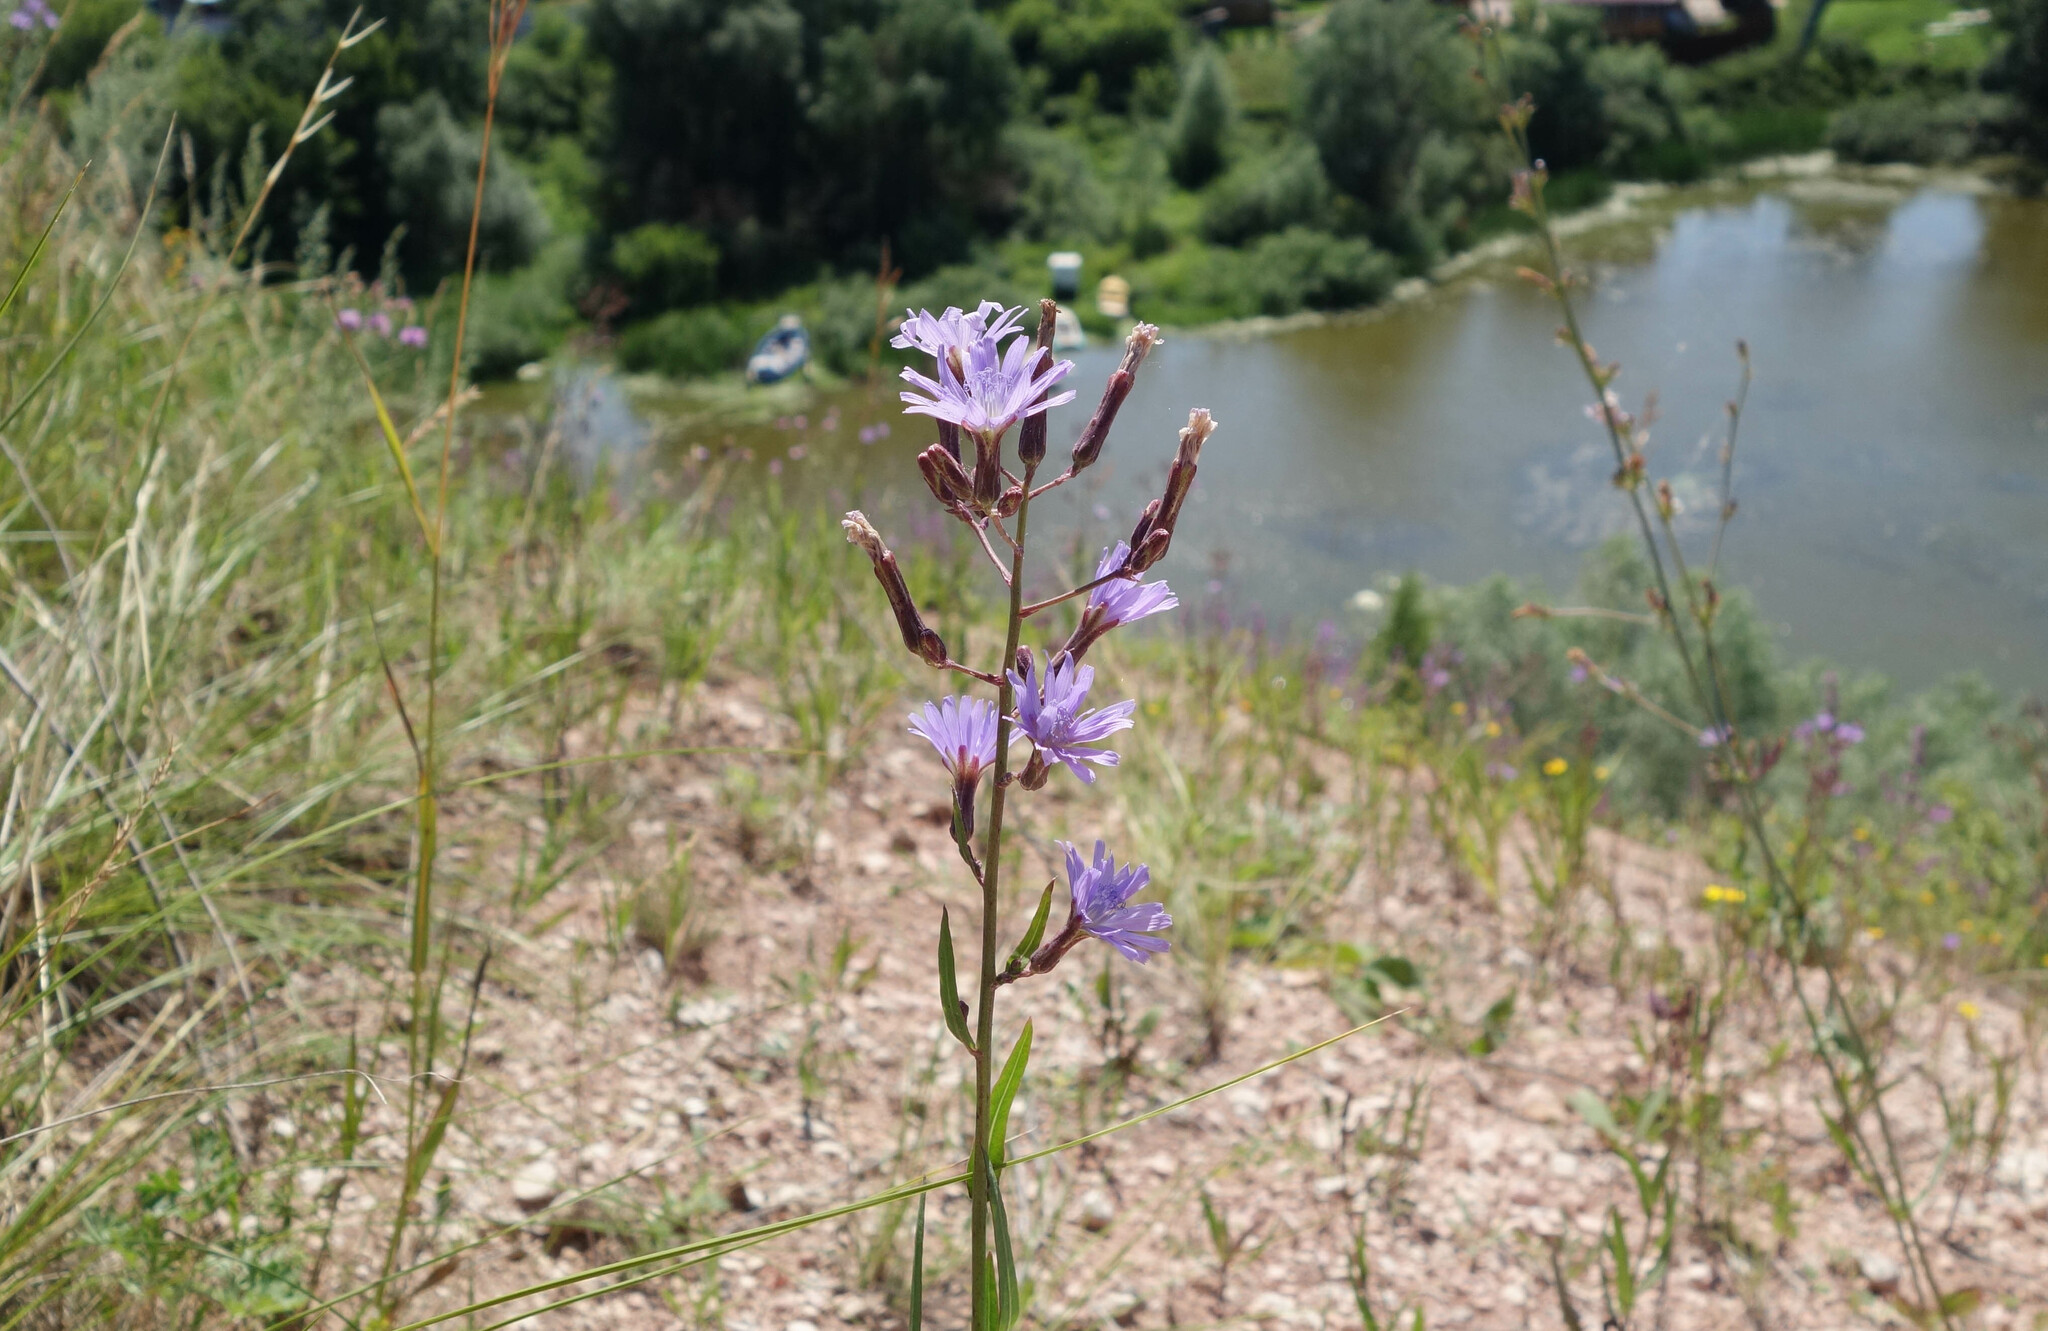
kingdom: Plantae
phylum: Tracheophyta
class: Magnoliopsida
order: Asterales
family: Asteraceae
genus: Lactuca
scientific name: Lactuca tatarica
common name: Blue lettuce
